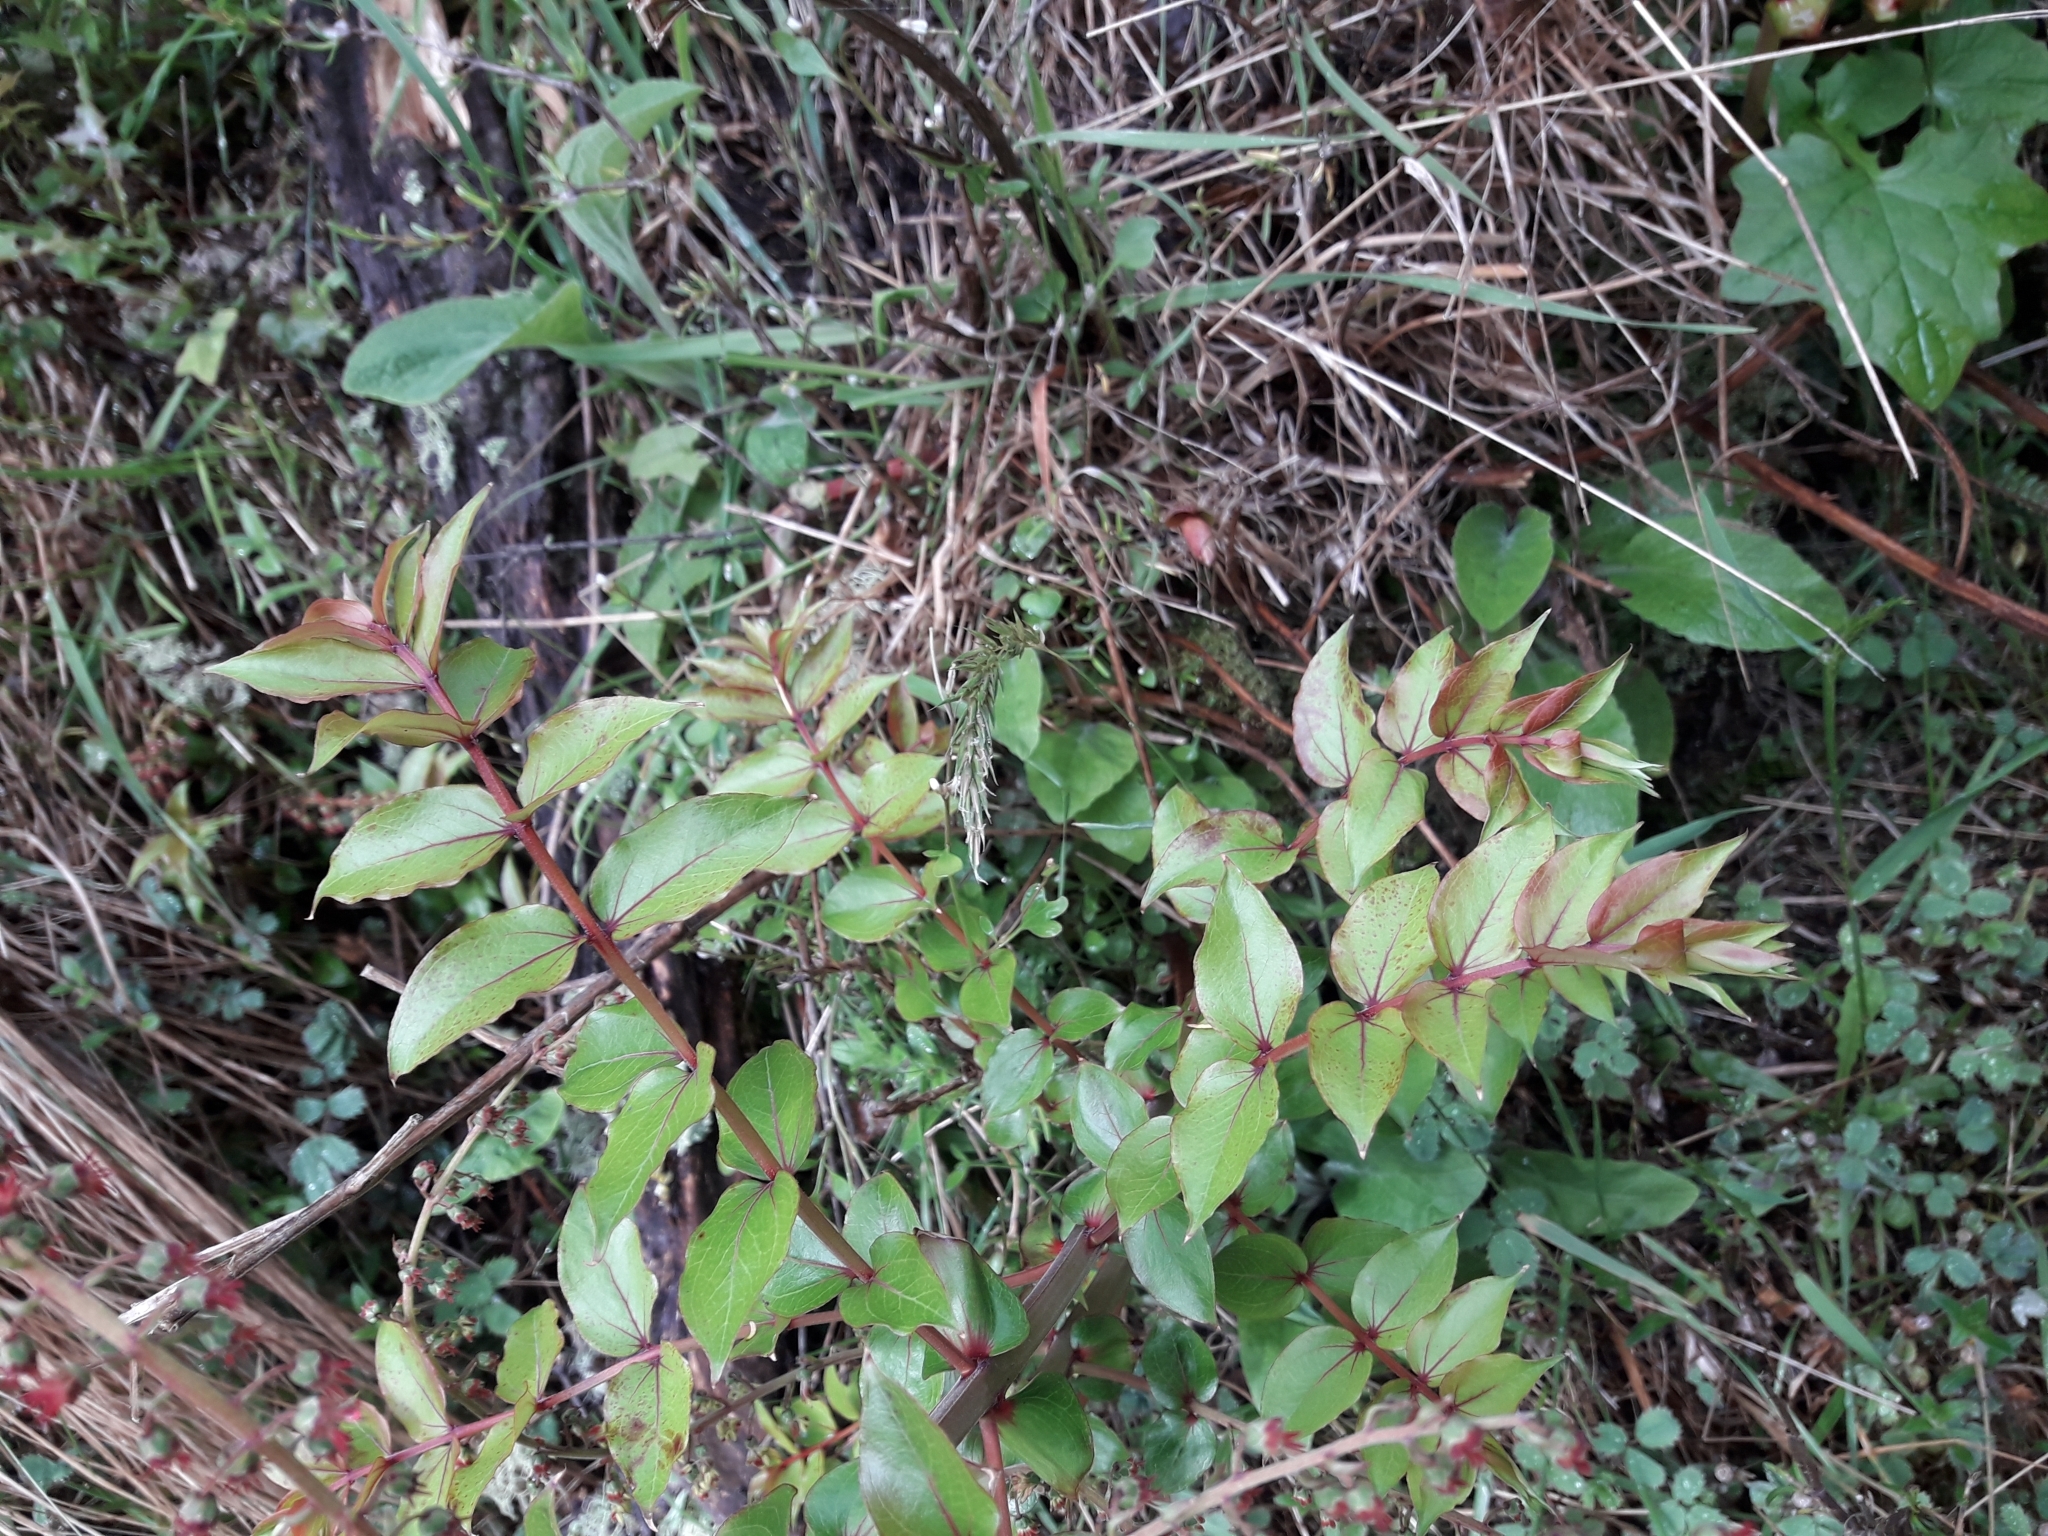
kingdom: Plantae
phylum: Tracheophyta
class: Magnoliopsida
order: Cucurbitales
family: Coriariaceae
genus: Coriaria
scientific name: Coriaria sarmentosa
